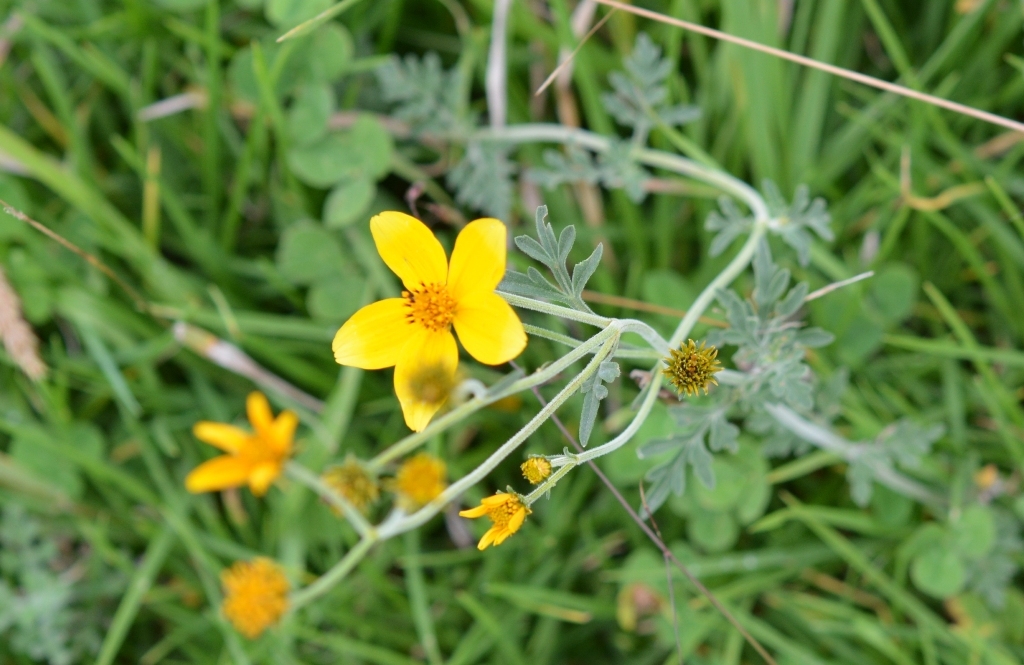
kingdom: Plantae
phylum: Tracheophyta
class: Magnoliopsida
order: Asterales
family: Asteraceae
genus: Bidens
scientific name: Bidens triplinervia
